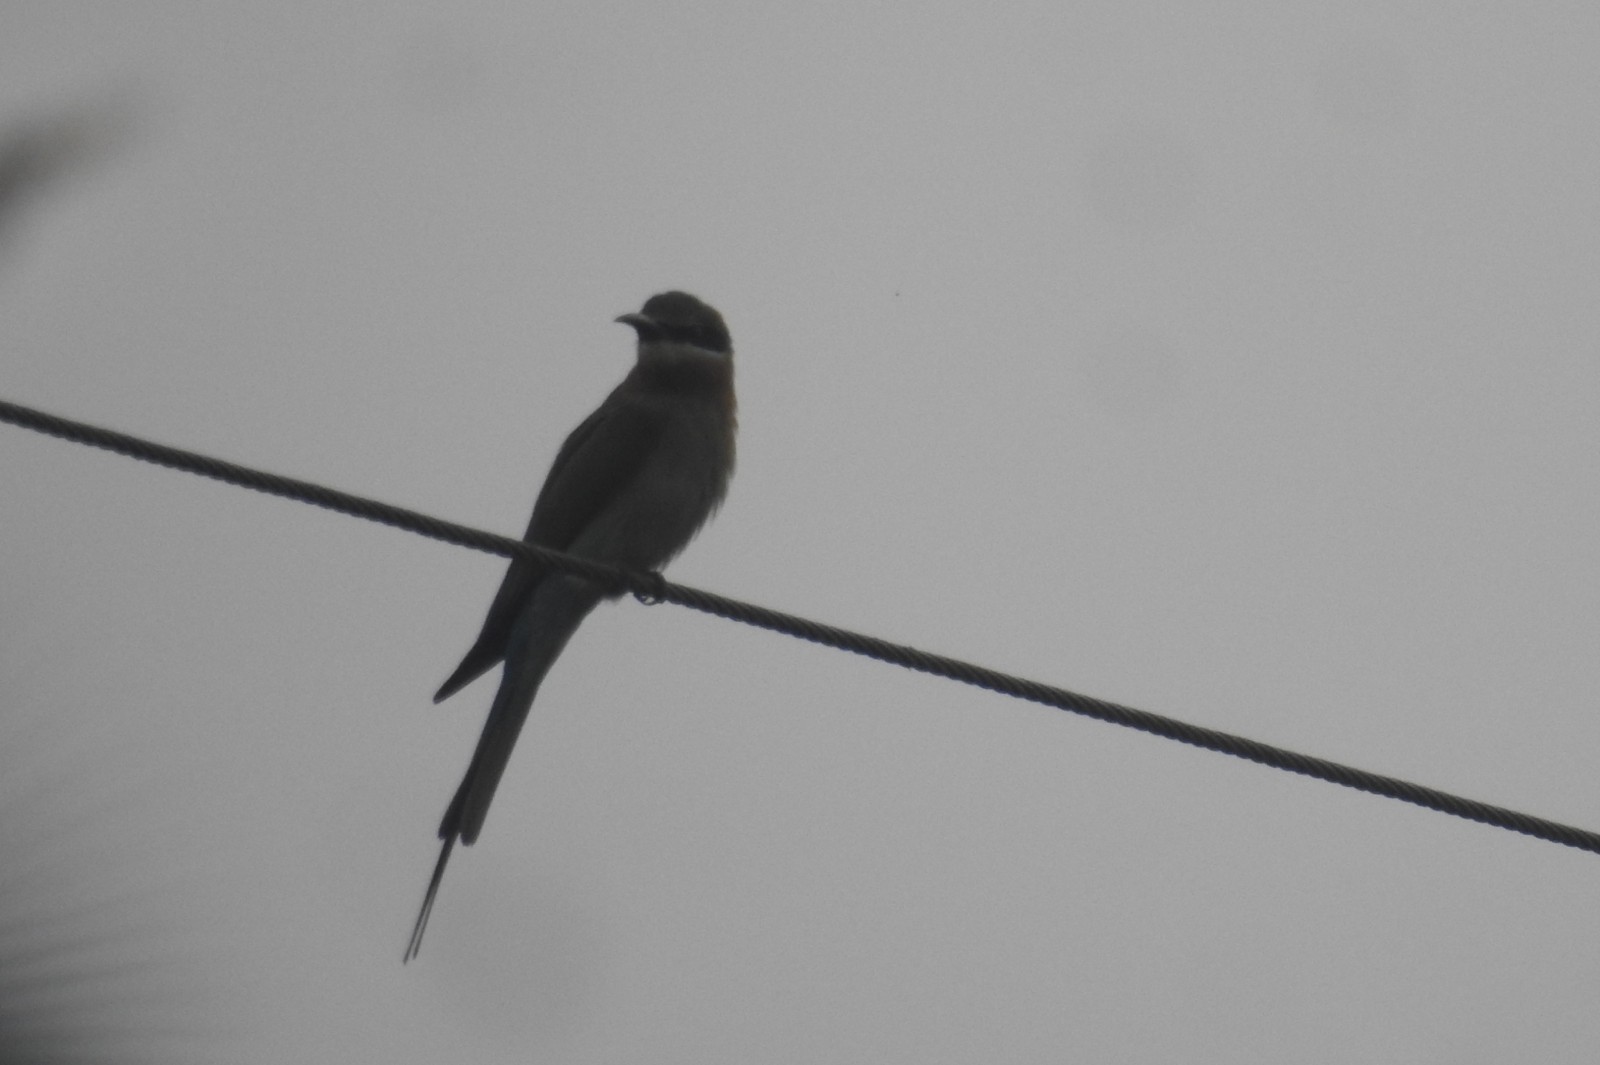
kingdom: Animalia
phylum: Chordata
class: Aves
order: Coraciiformes
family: Meropidae
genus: Merops
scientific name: Merops philippinus
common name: Blue-tailed bee-eater
